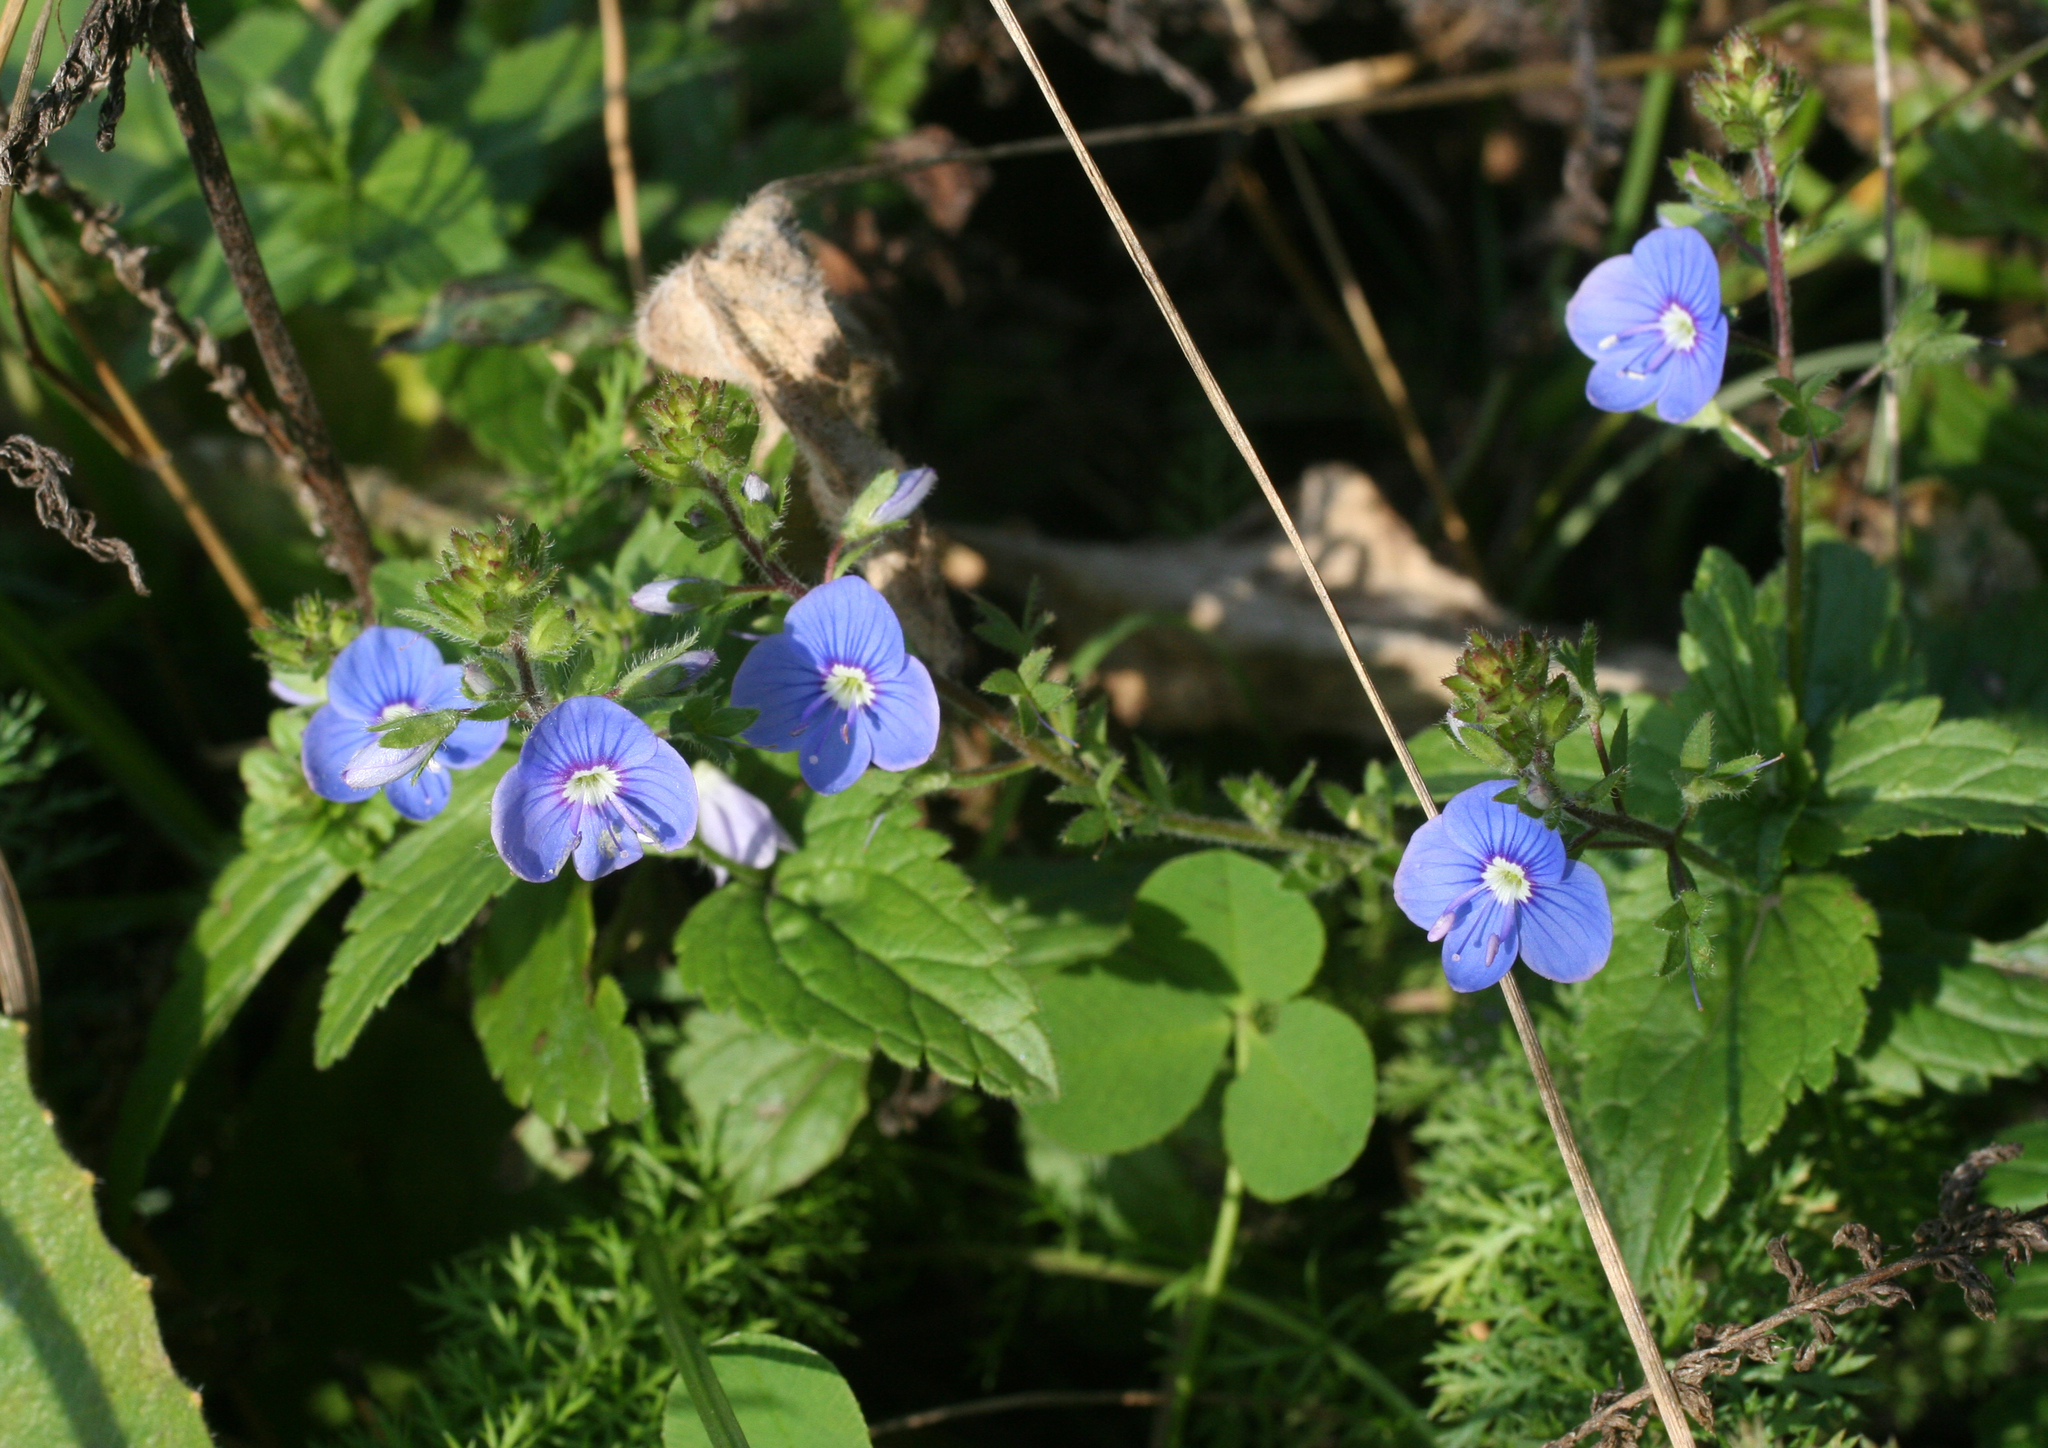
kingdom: Plantae
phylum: Tracheophyta
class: Magnoliopsida
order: Lamiales
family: Plantaginaceae
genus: Veronica
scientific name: Veronica chamaedrys
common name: Germander speedwell
